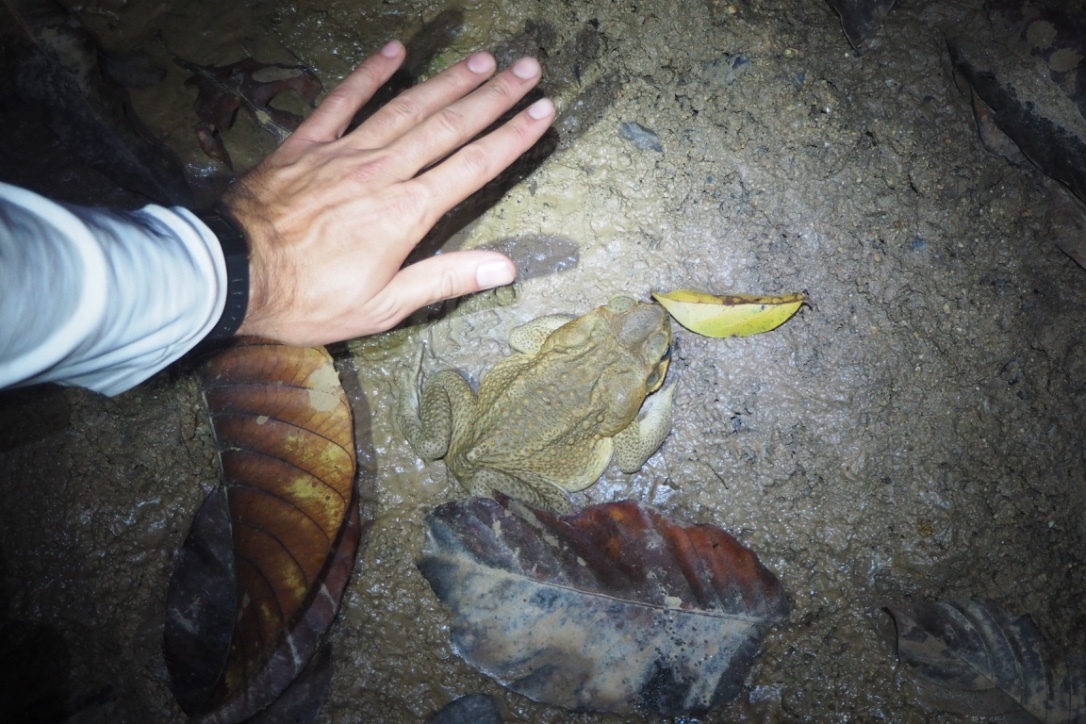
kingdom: Animalia
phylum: Chordata
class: Amphibia
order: Anura
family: Bufonidae
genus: Rhinella
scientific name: Rhinella marina
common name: Cane toad
